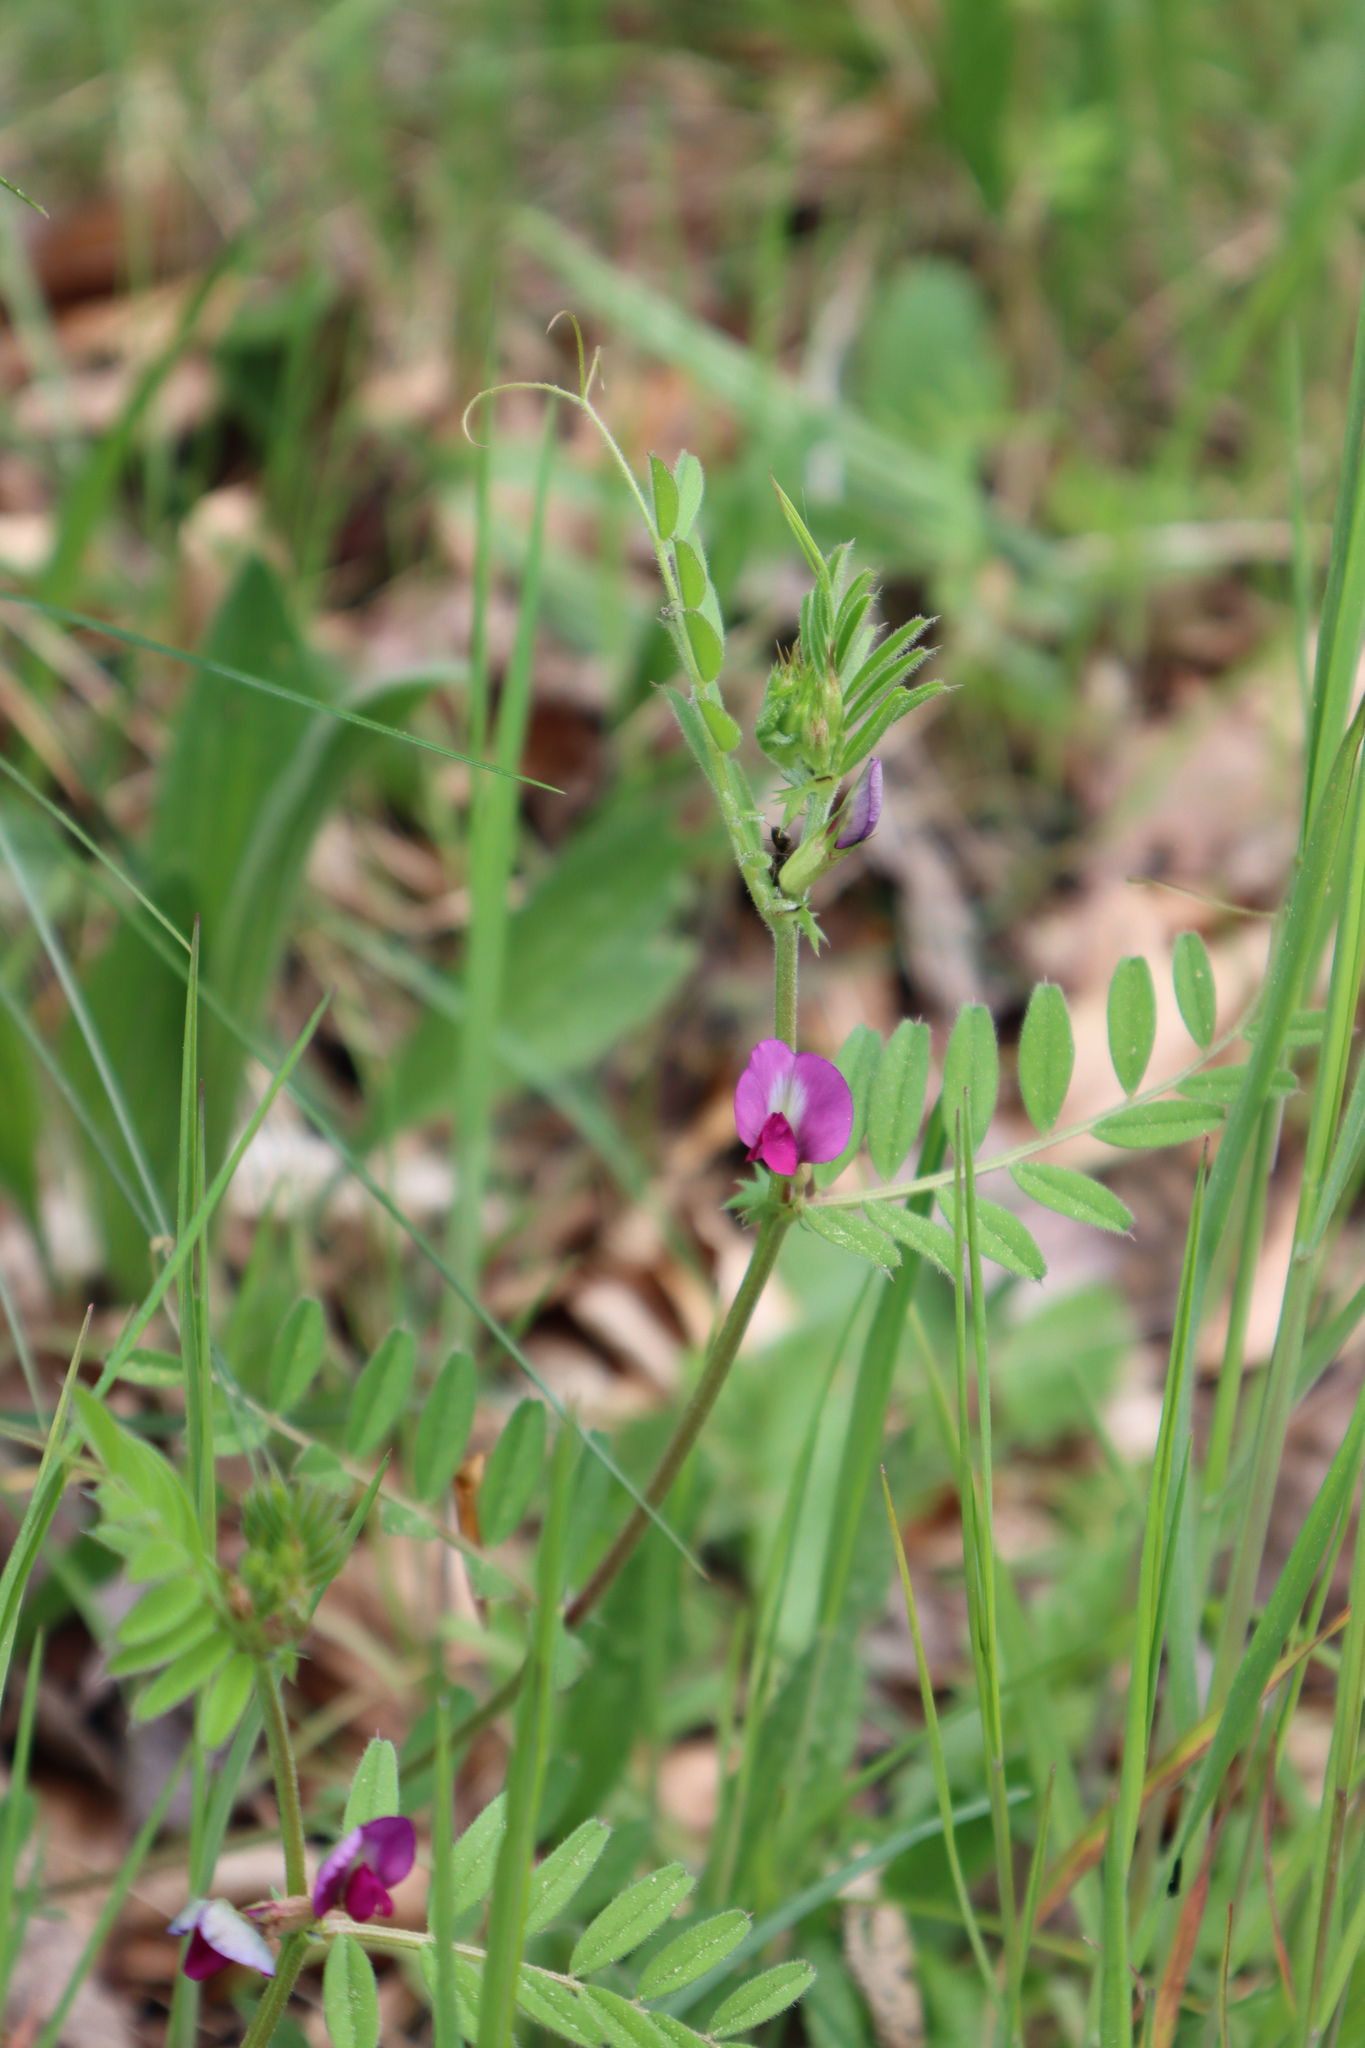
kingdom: Plantae
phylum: Tracheophyta
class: Magnoliopsida
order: Fabales
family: Fabaceae
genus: Vicia
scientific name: Vicia sativa
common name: Garden vetch
